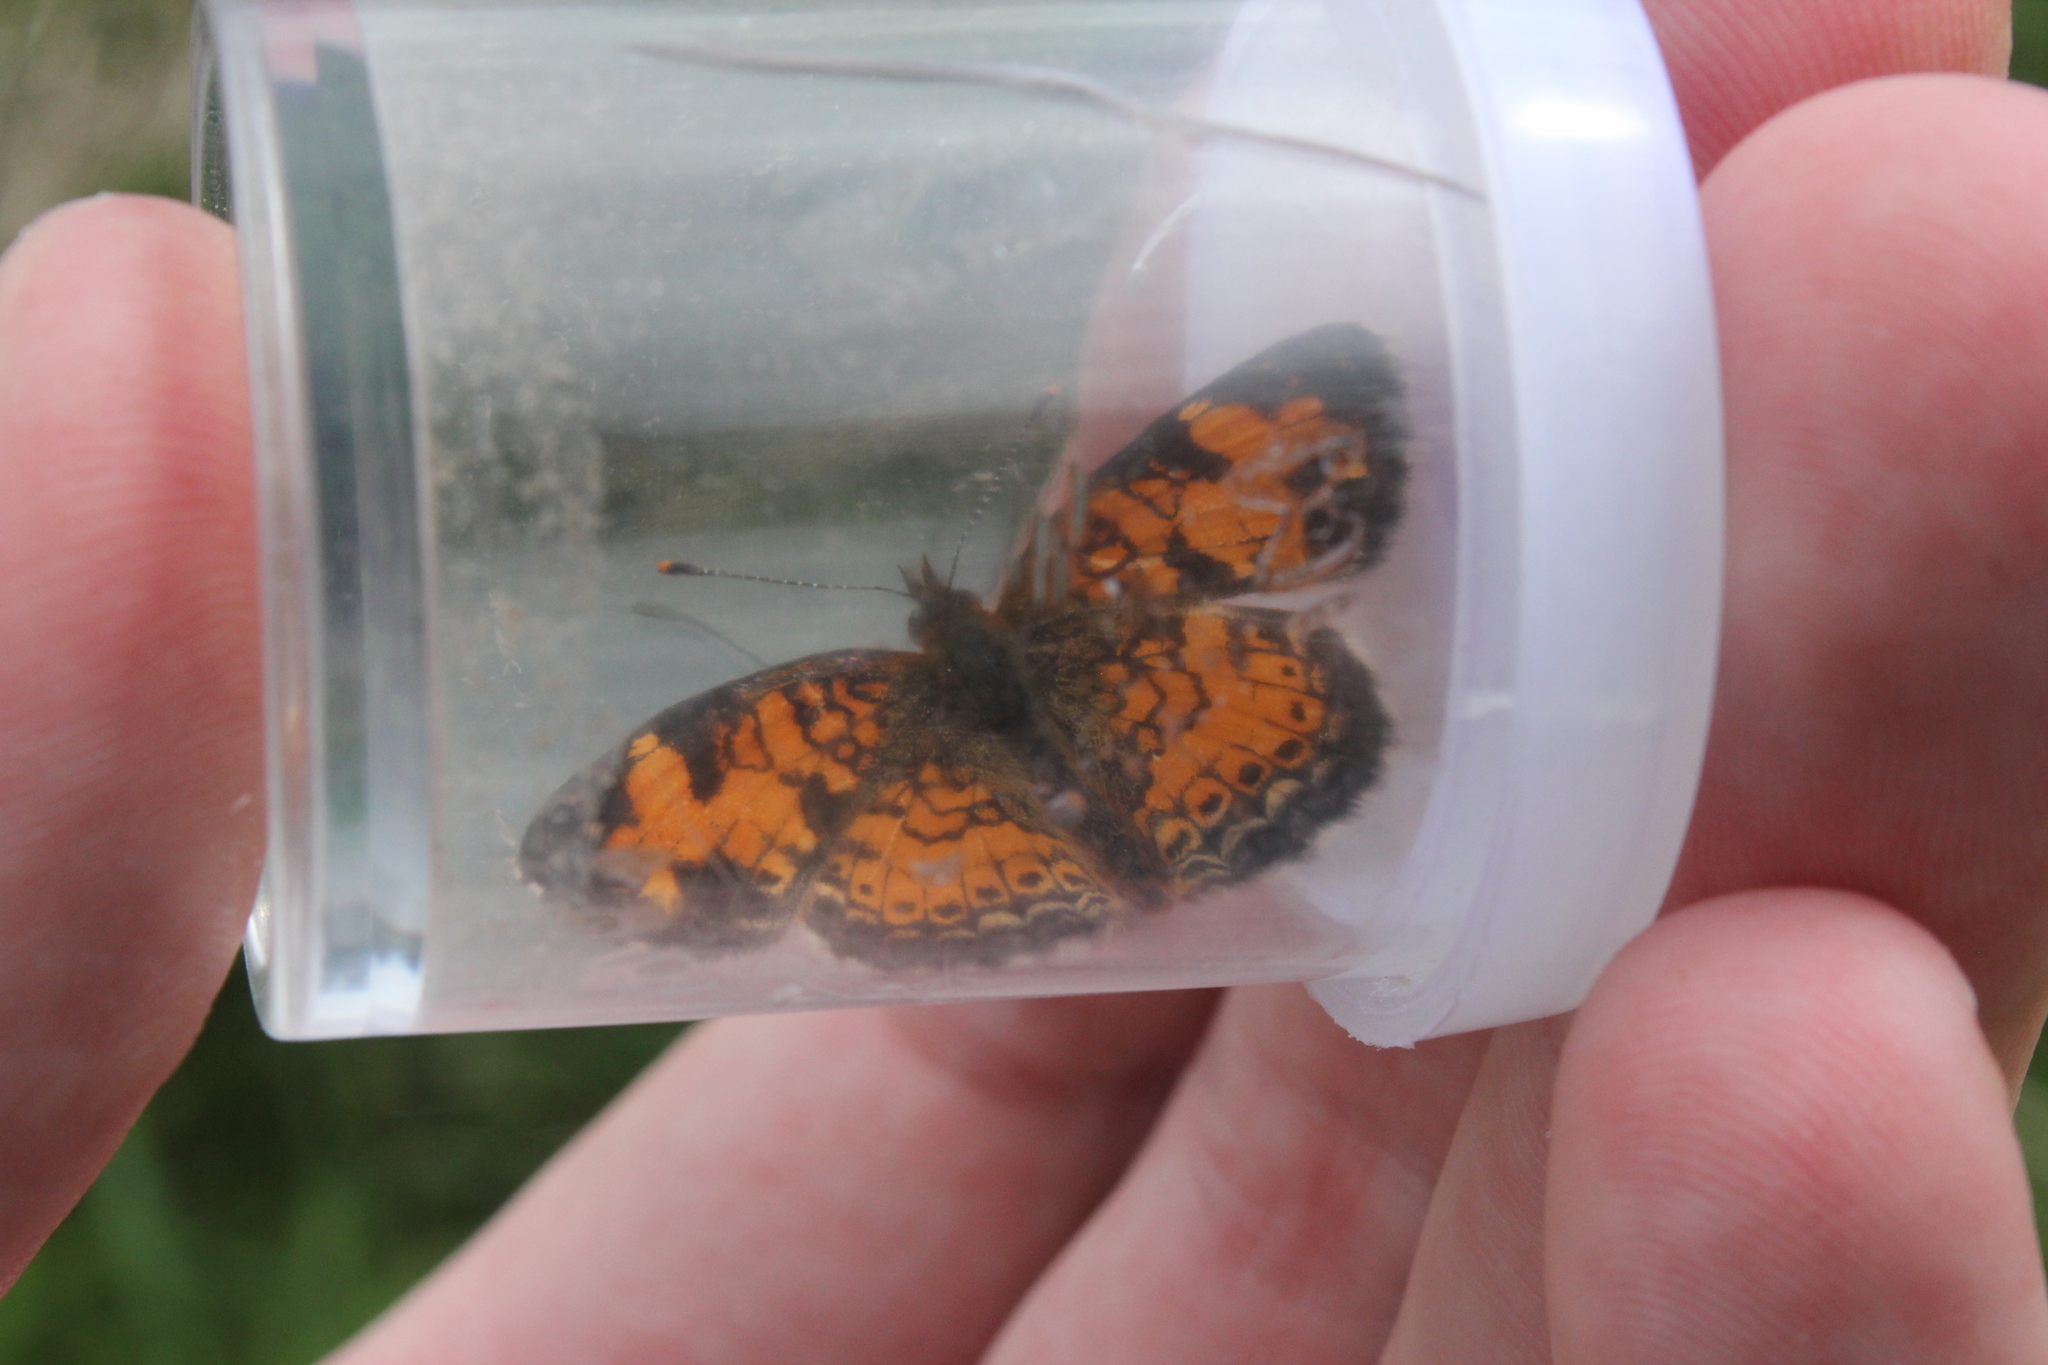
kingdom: Animalia
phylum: Arthropoda
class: Insecta
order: Lepidoptera
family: Nymphalidae
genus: Phyciodes
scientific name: Phyciodes tharos
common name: Pearl crescent
